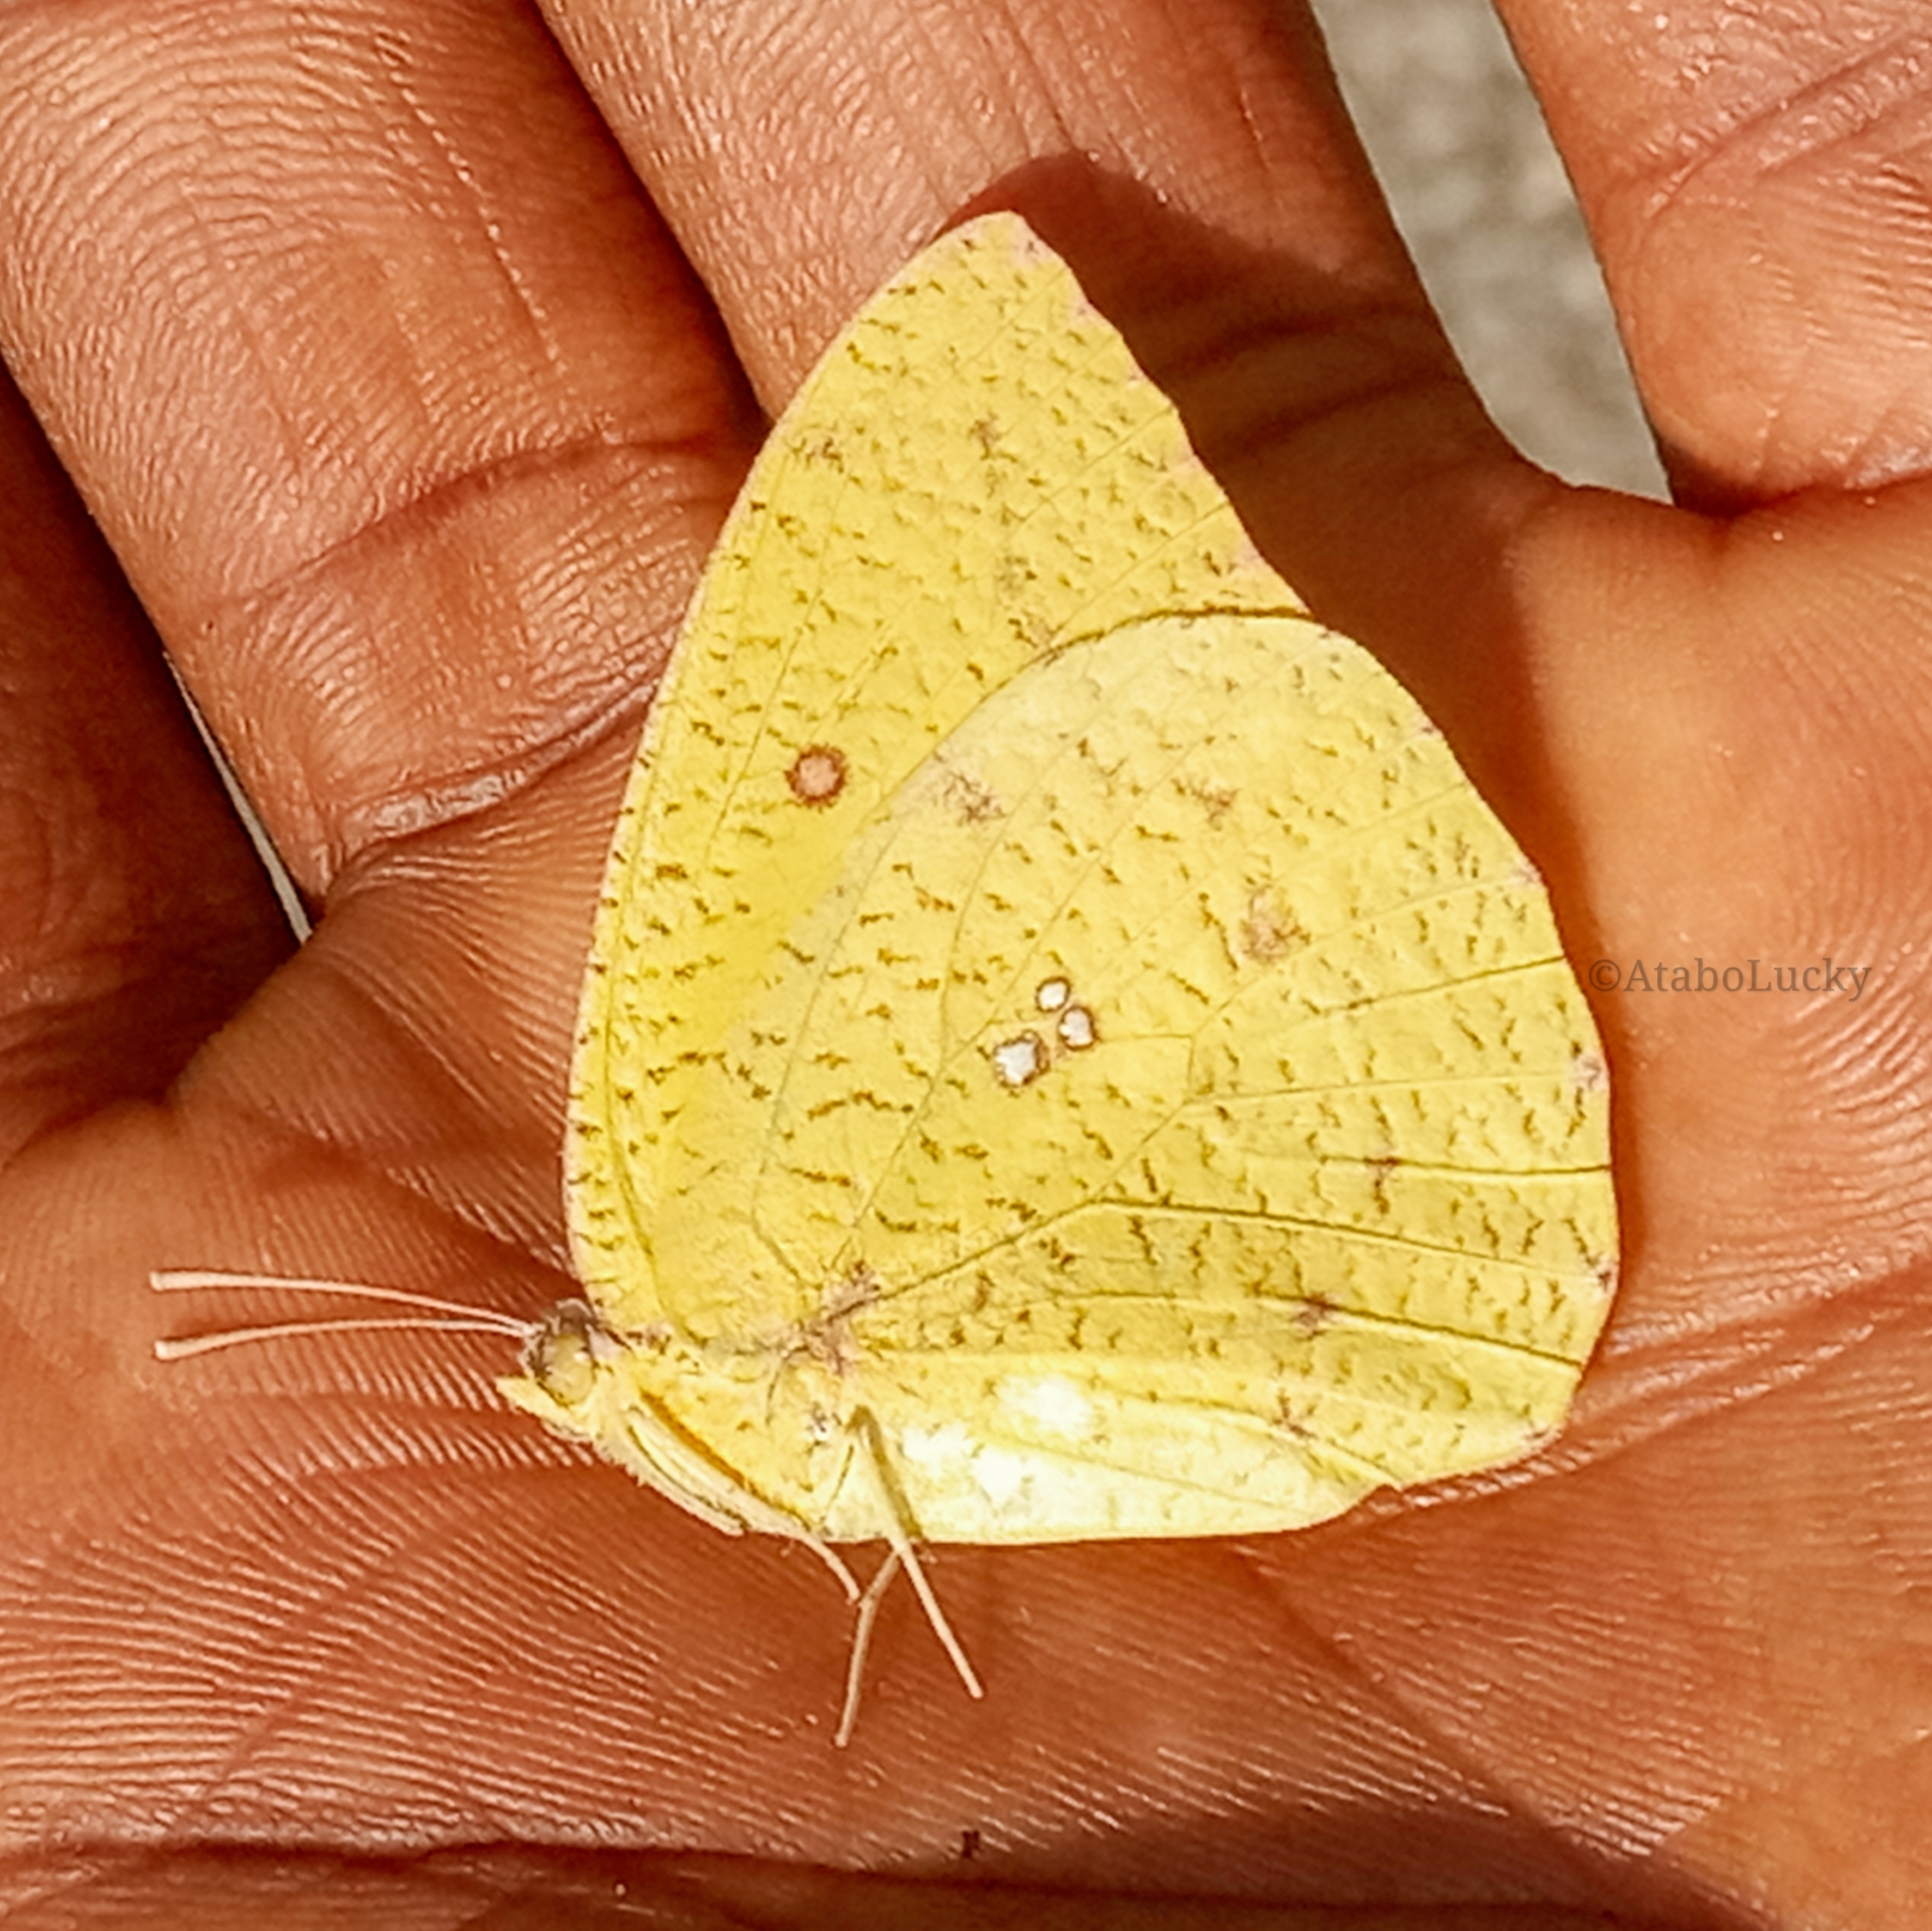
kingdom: Animalia
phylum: Arthropoda
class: Insecta
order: Lepidoptera
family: Pieridae
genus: Catopsilia
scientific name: Catopsilia florella
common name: African migrant
